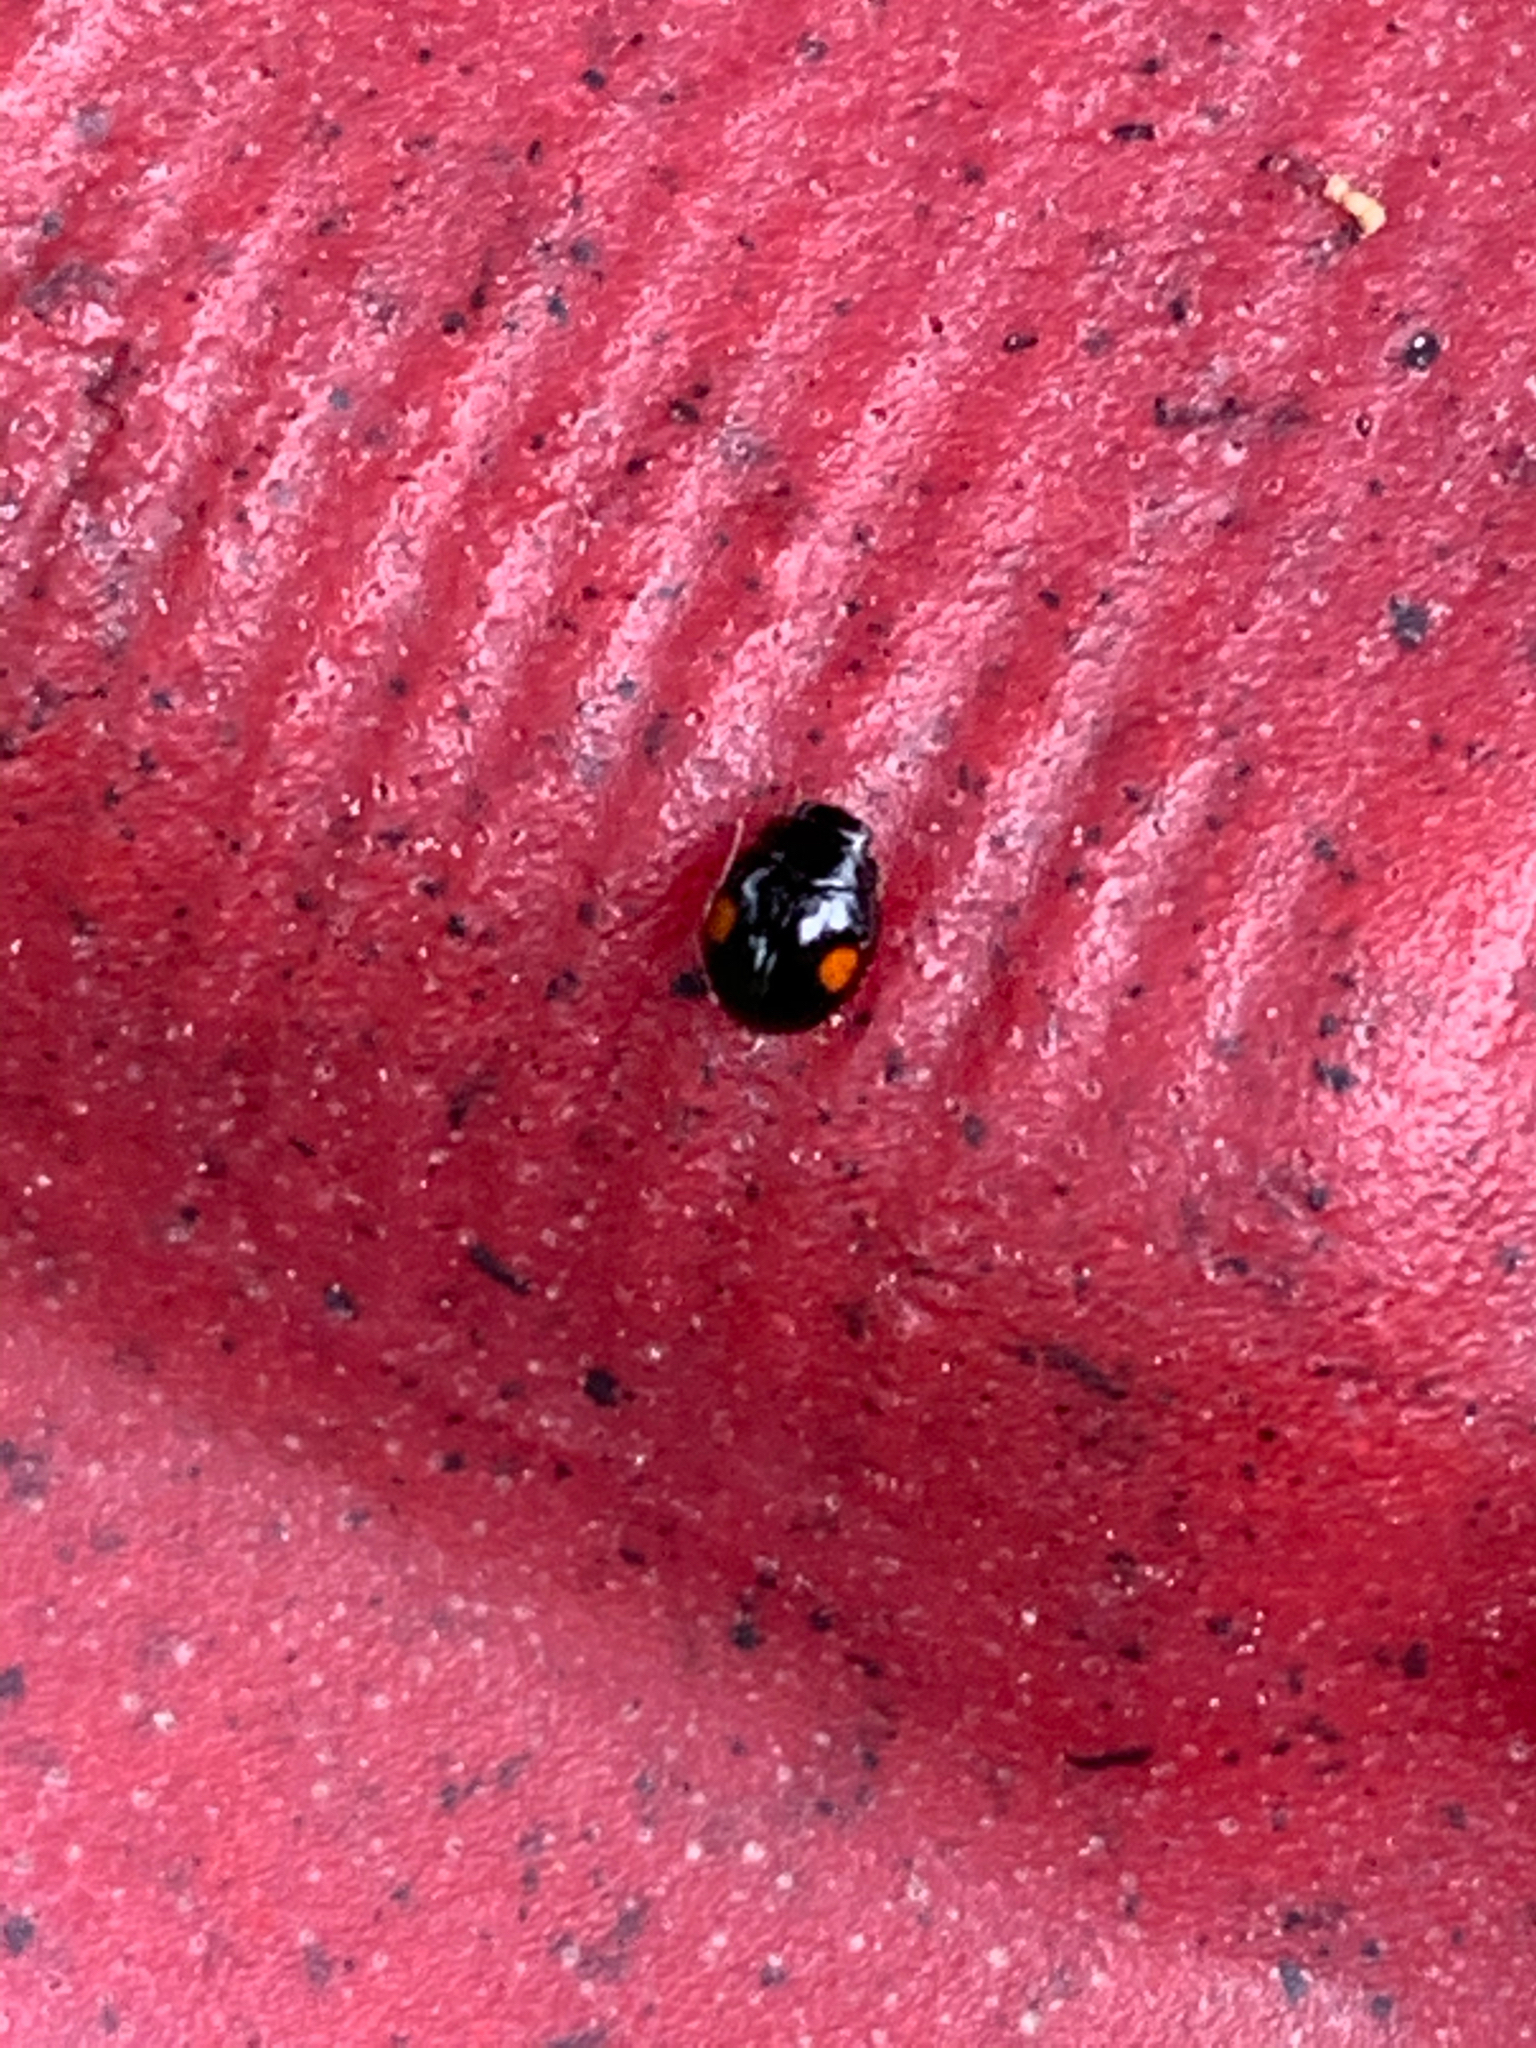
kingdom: Animalia
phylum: Arthropoda
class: Insecta
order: Coleoptera
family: Coccinellidae
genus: Hyperaspis
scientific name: Hyperaspis
